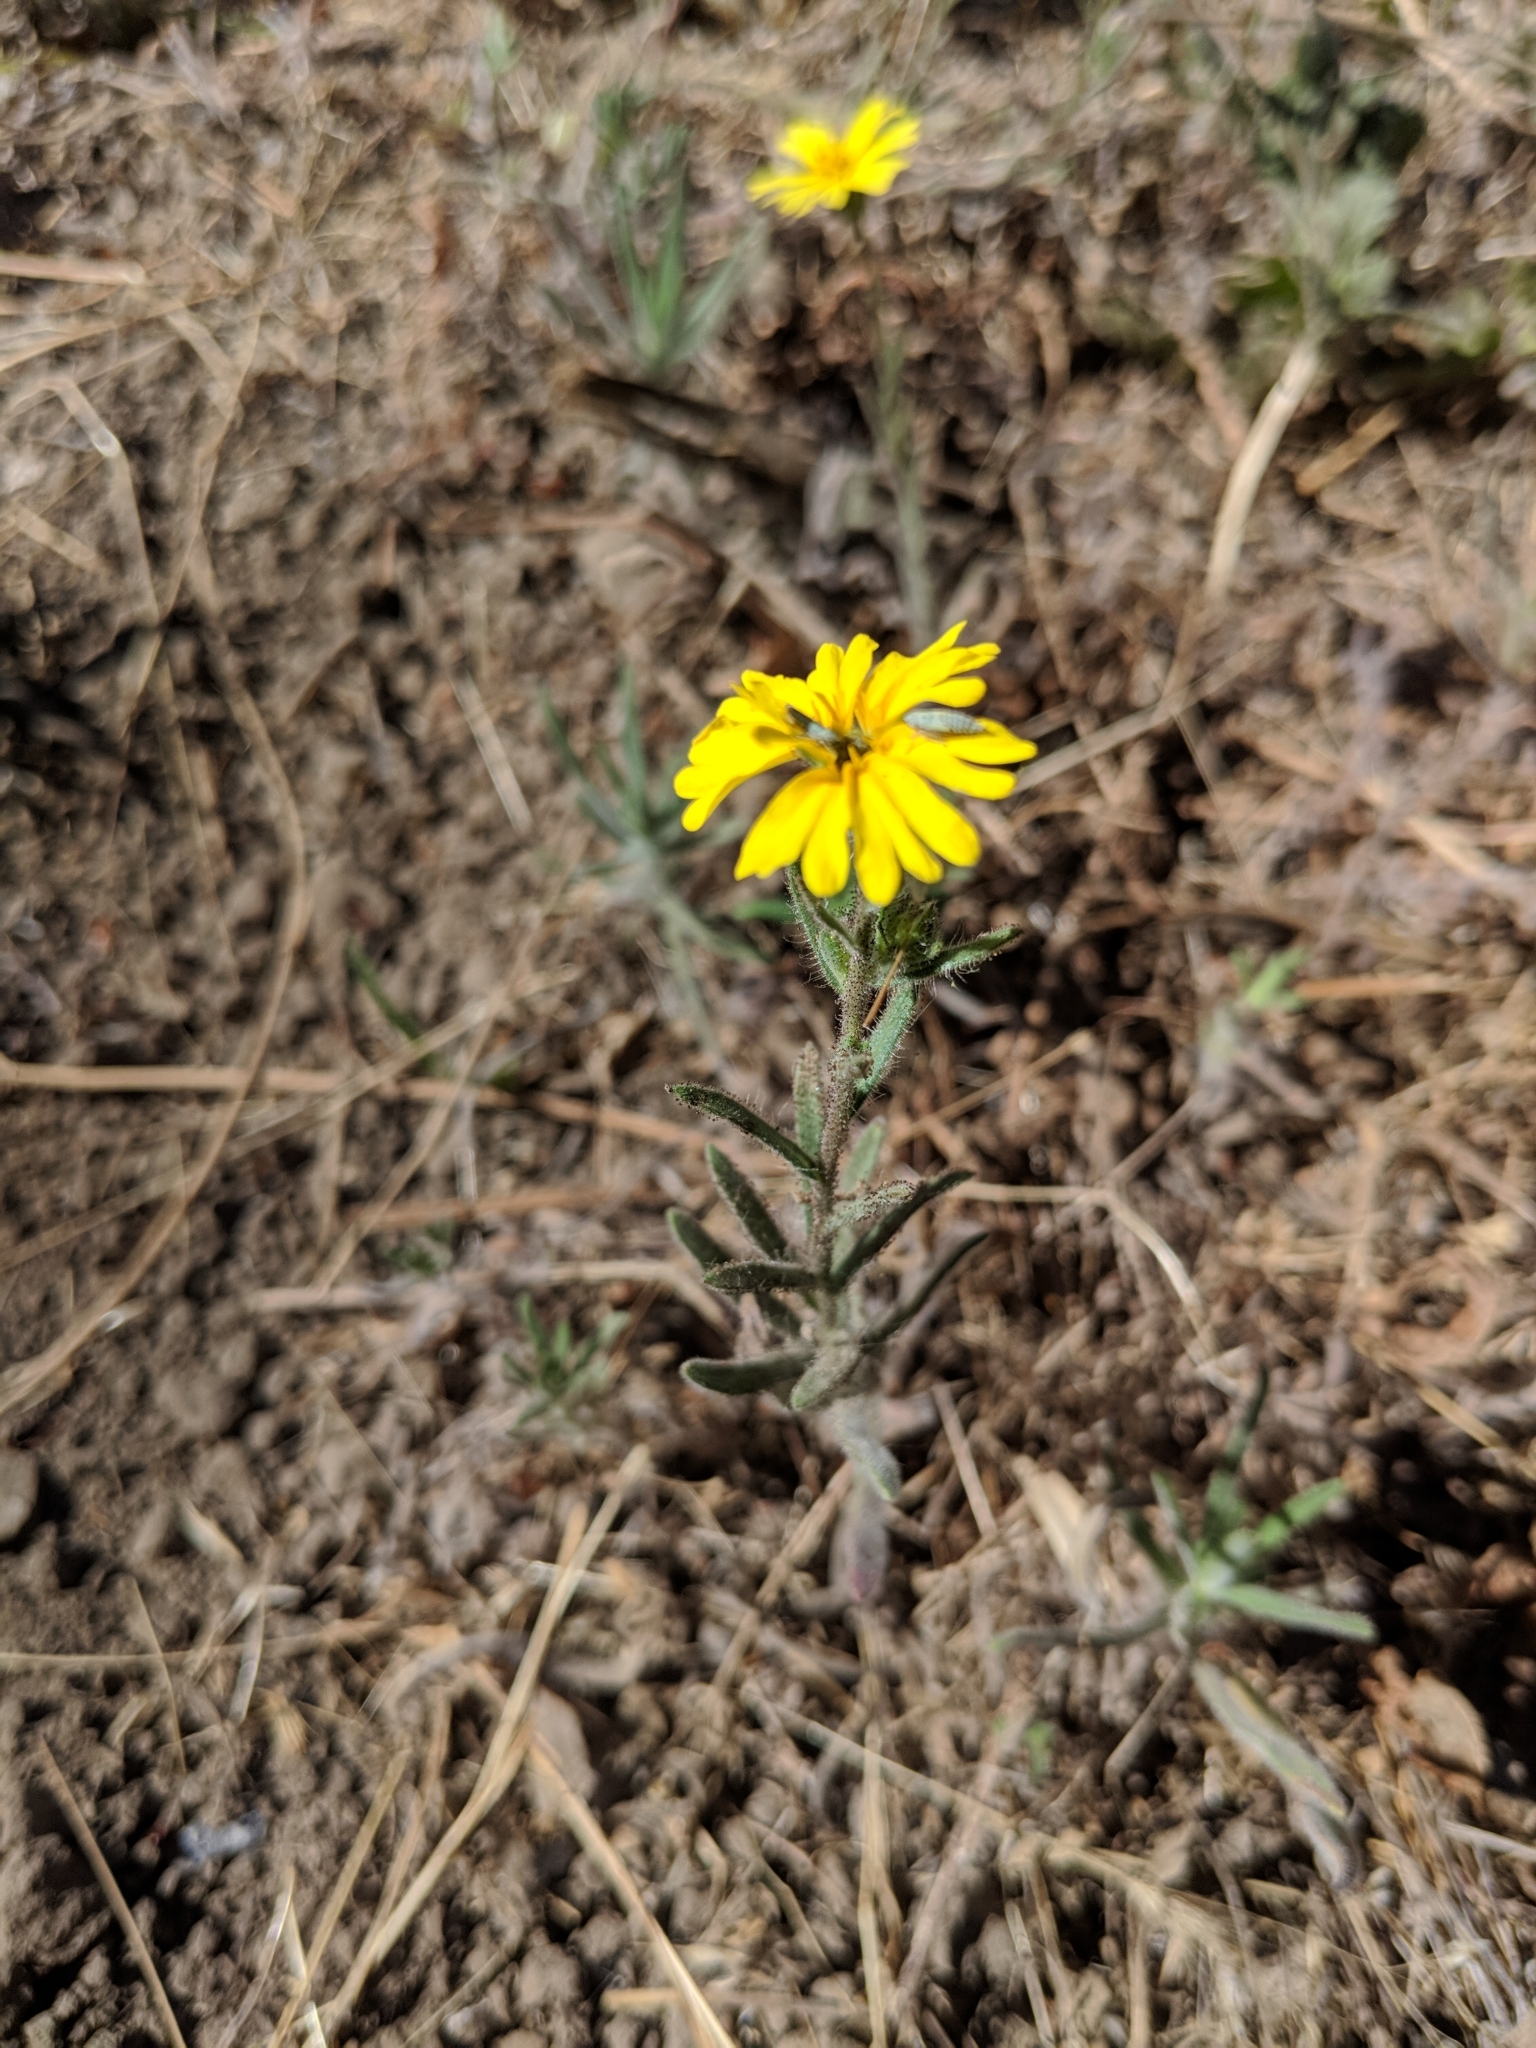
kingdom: Plantae
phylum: Tracheophyta
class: Magnoliopsida
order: Asterales
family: Asteraceae
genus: Madia
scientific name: Madia elegans
